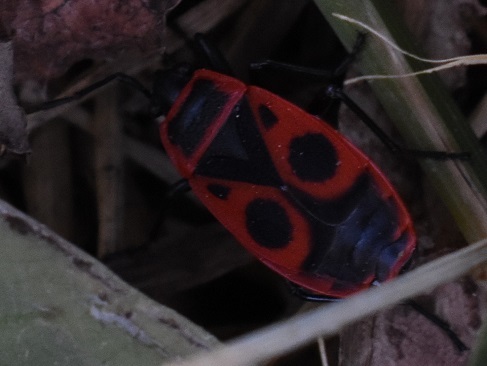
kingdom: Animalia
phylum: Arthropoda
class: Insecta
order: Hemiptera
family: Pyrrhocoridae
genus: Pyrrhocoris
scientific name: Pyrrhocoris apterus
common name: Firebug
